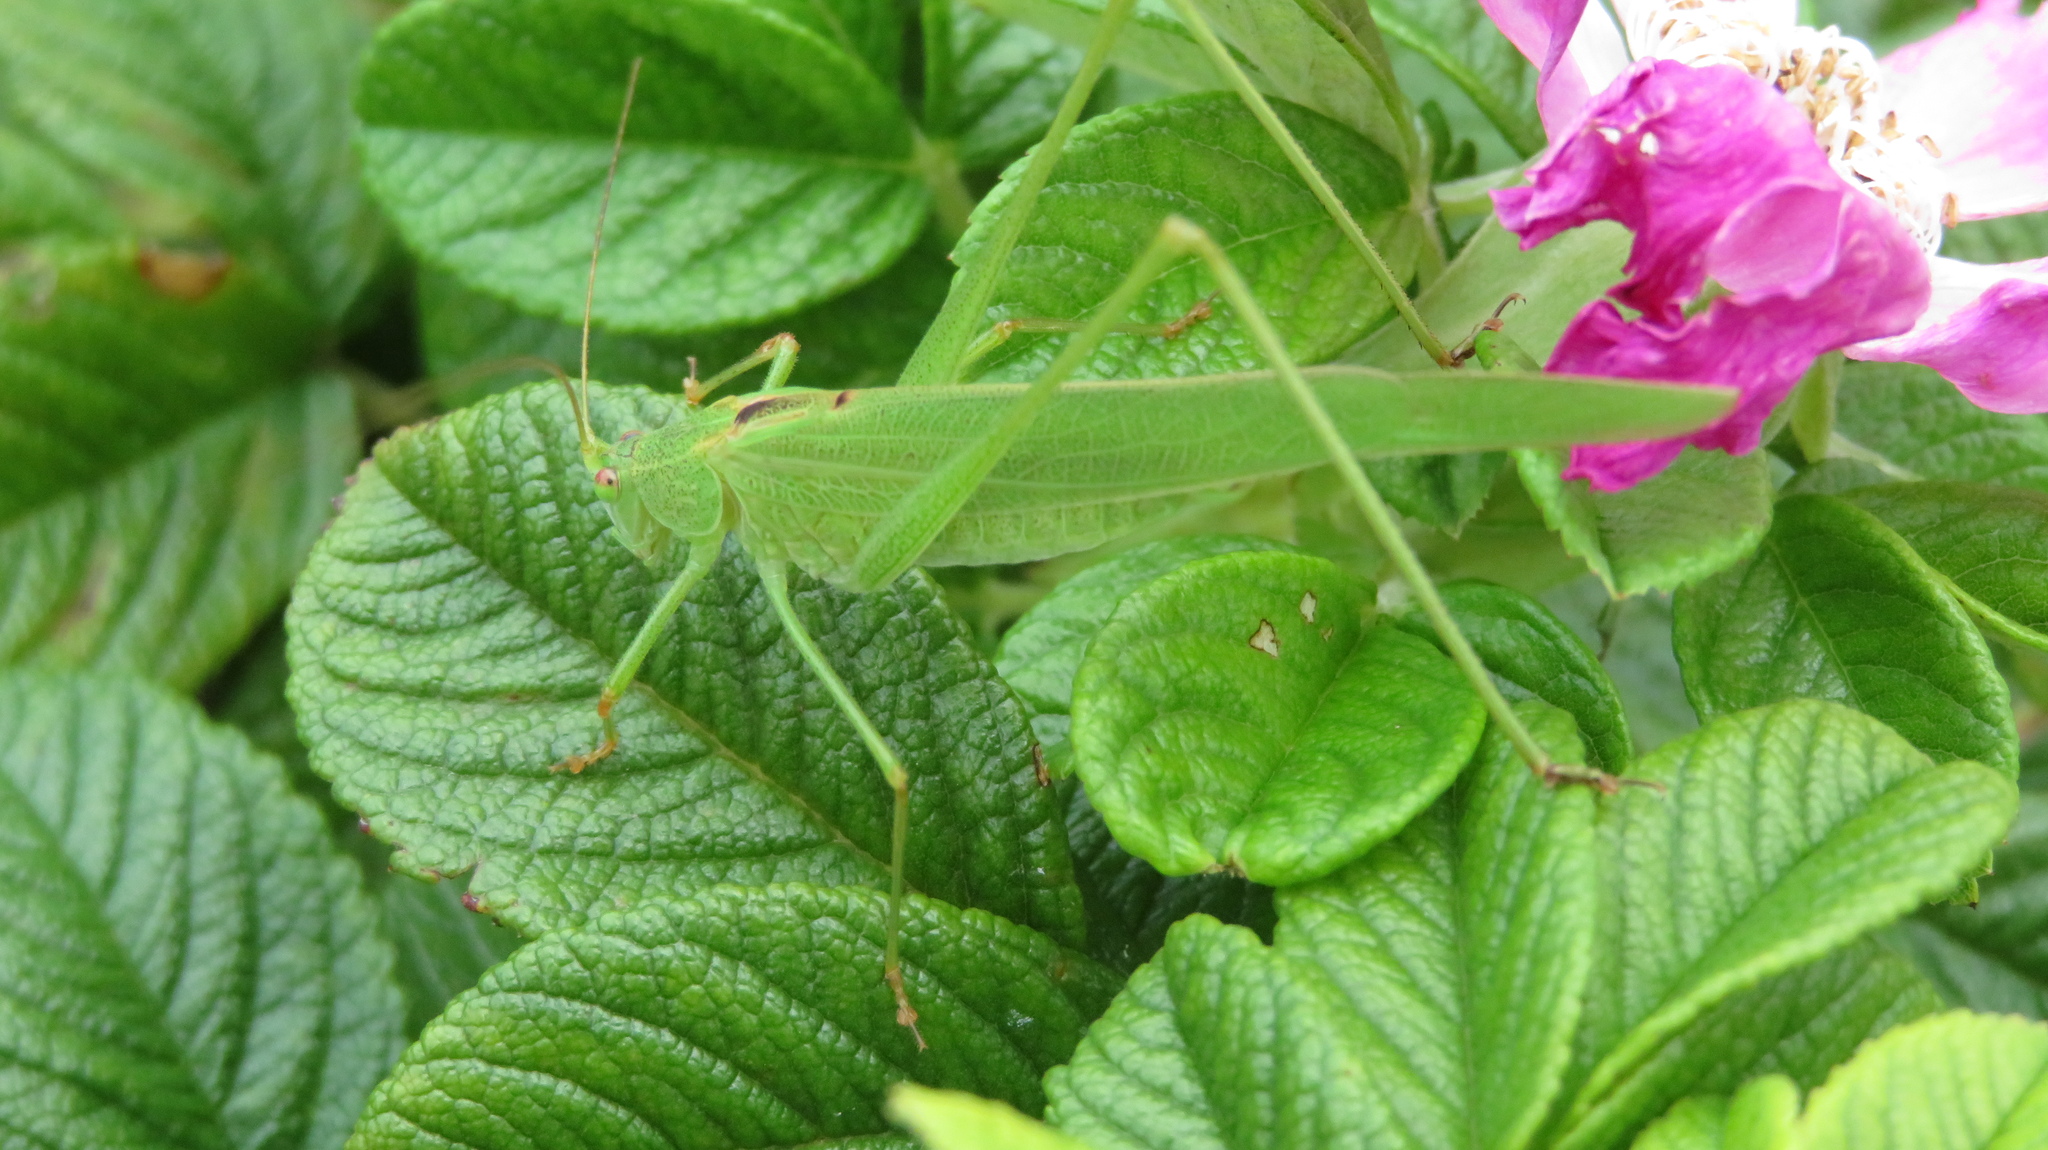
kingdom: Animalia
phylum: Arthropoda
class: Insecta
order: Orthoptera
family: Tettigoniidae
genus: Phaneroptera
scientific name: Phaneroptera falcata
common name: Sickle-bearing bush-cricket
